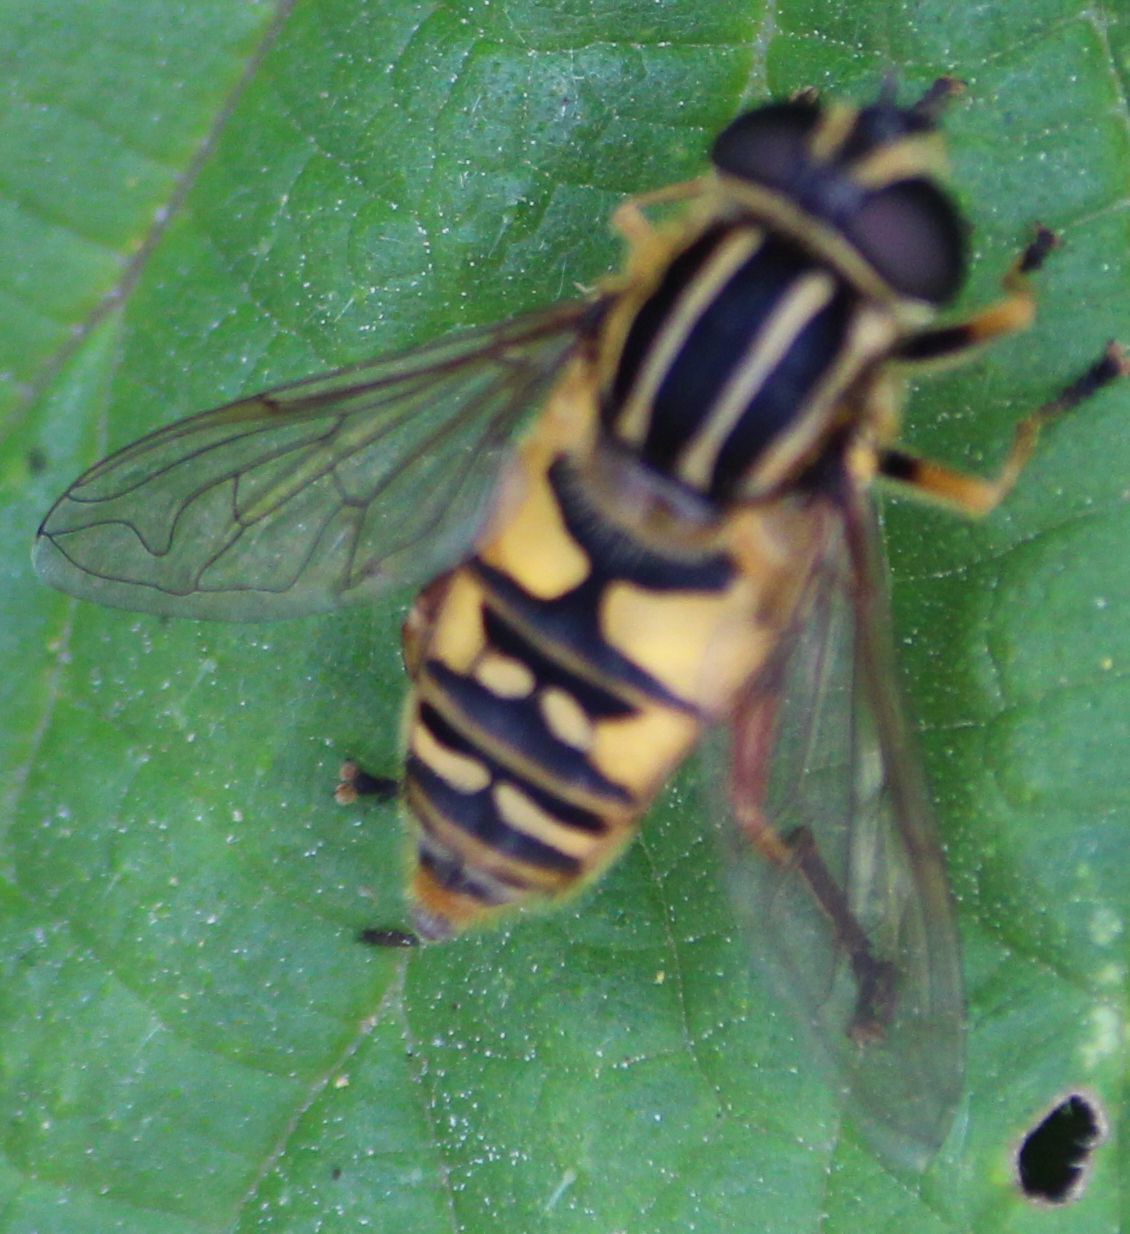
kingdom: Animalia
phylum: Arthropoda
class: Insecta
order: Diptera
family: Syrphidae
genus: Helophilus
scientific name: Helophilus pendulus
